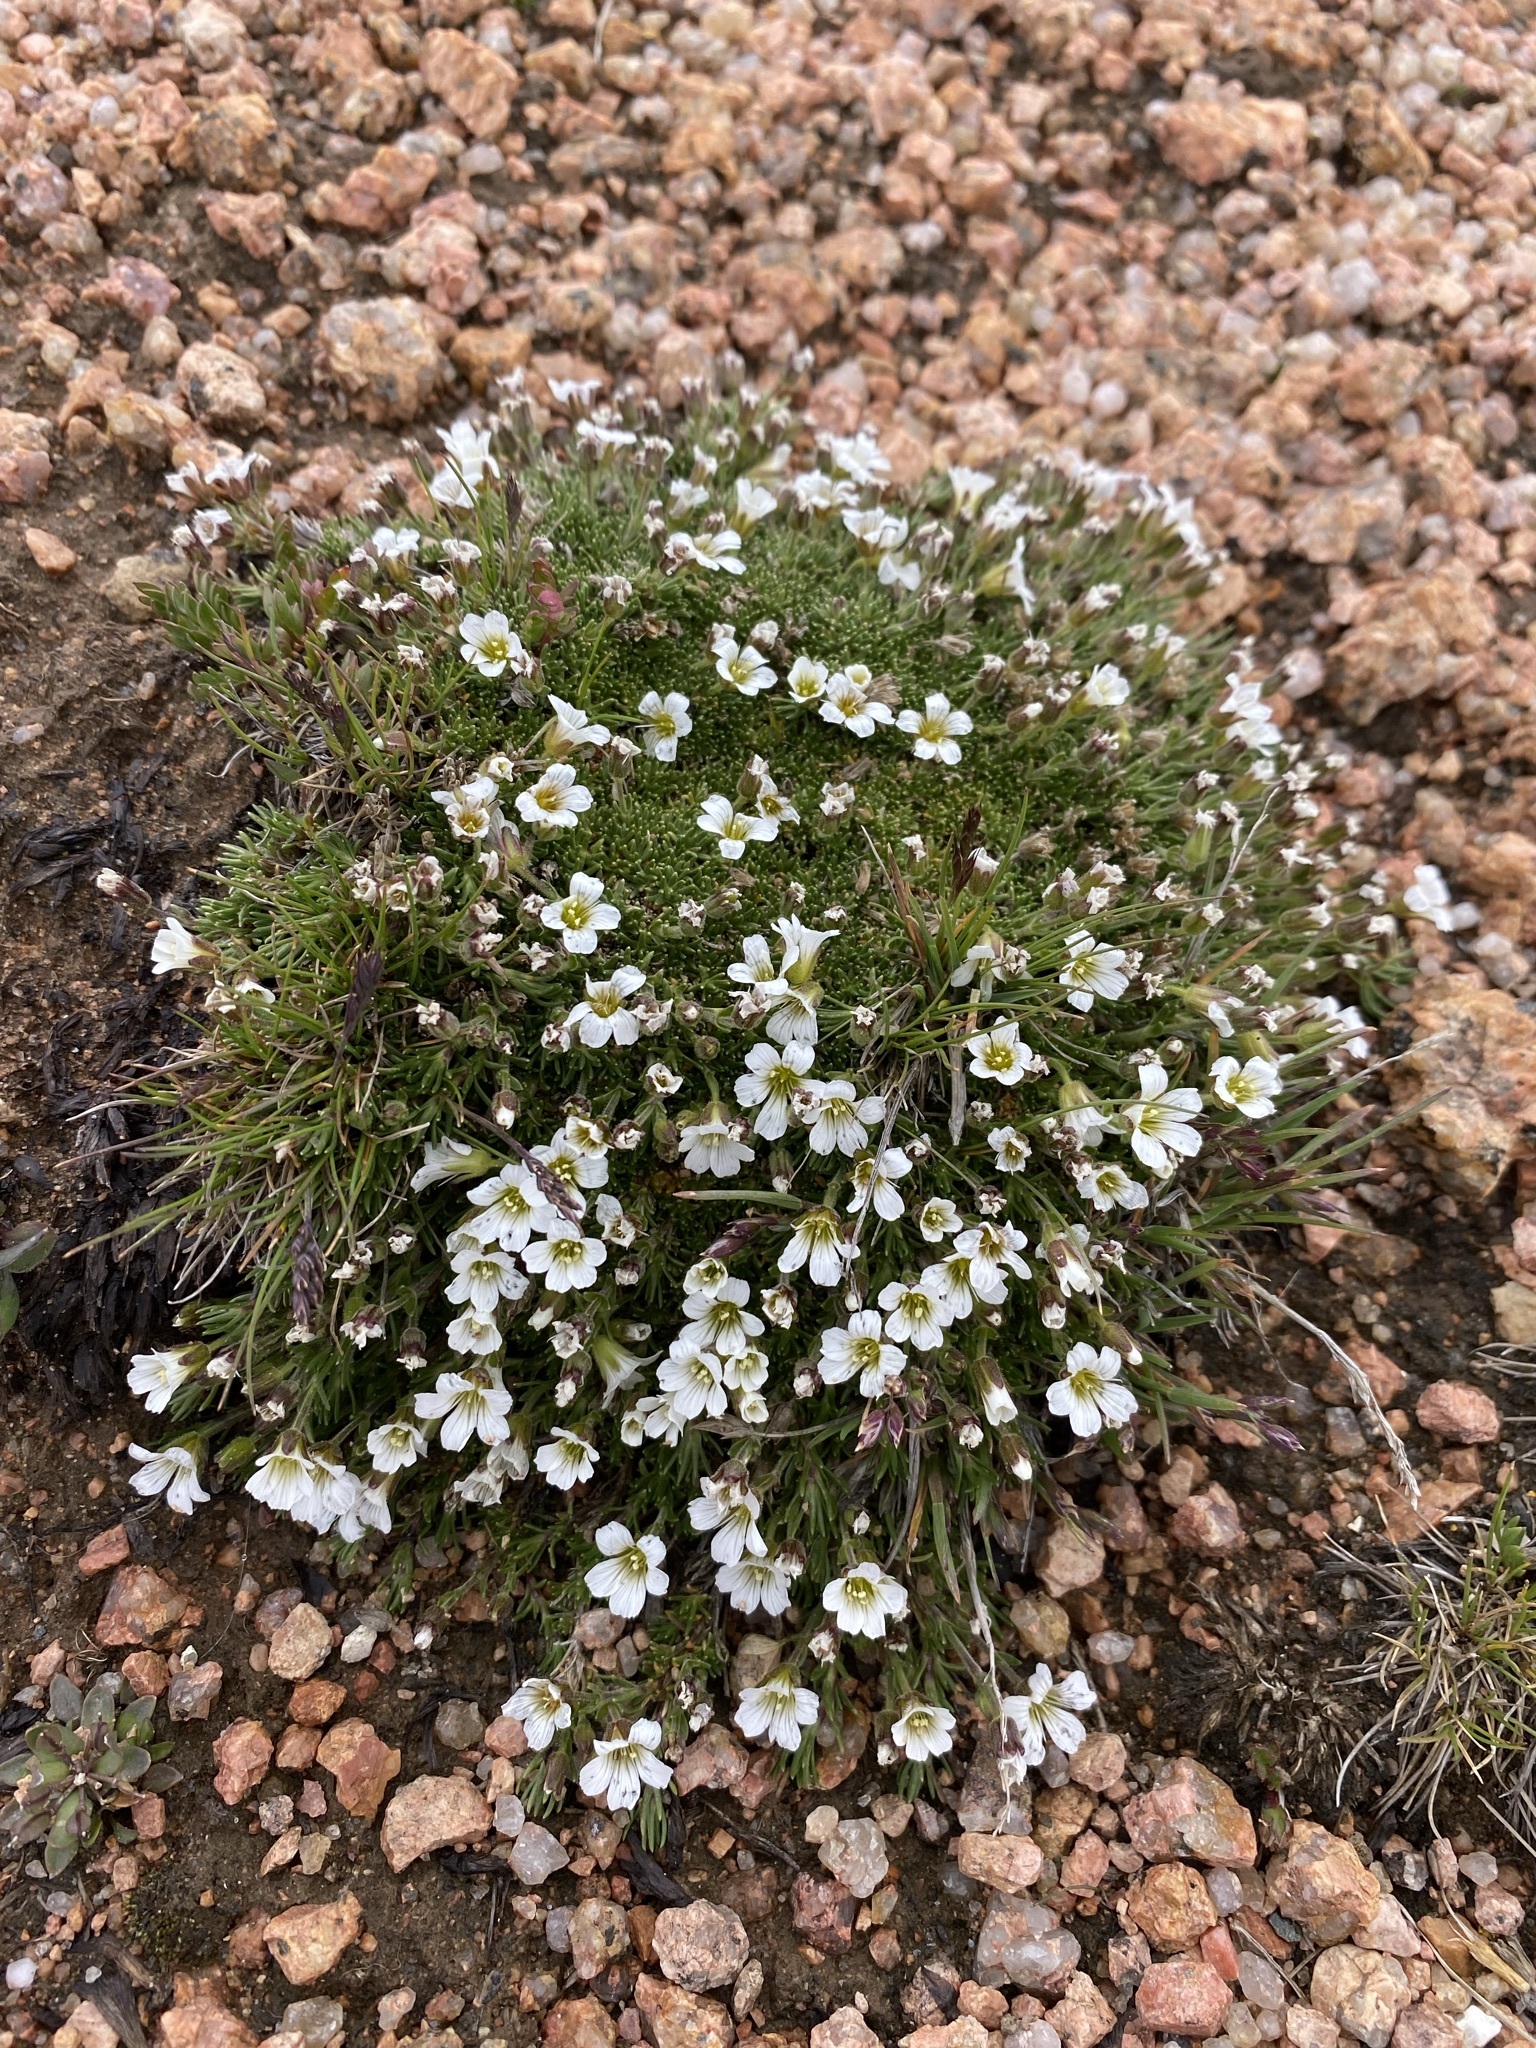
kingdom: Plantae
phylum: Tracheophyta
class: Magnoliopsida
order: Caryophyllales
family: Caryophyllaceae
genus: Cherleria
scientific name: Cherleria obtusiloba
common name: Alpine stitchwort
